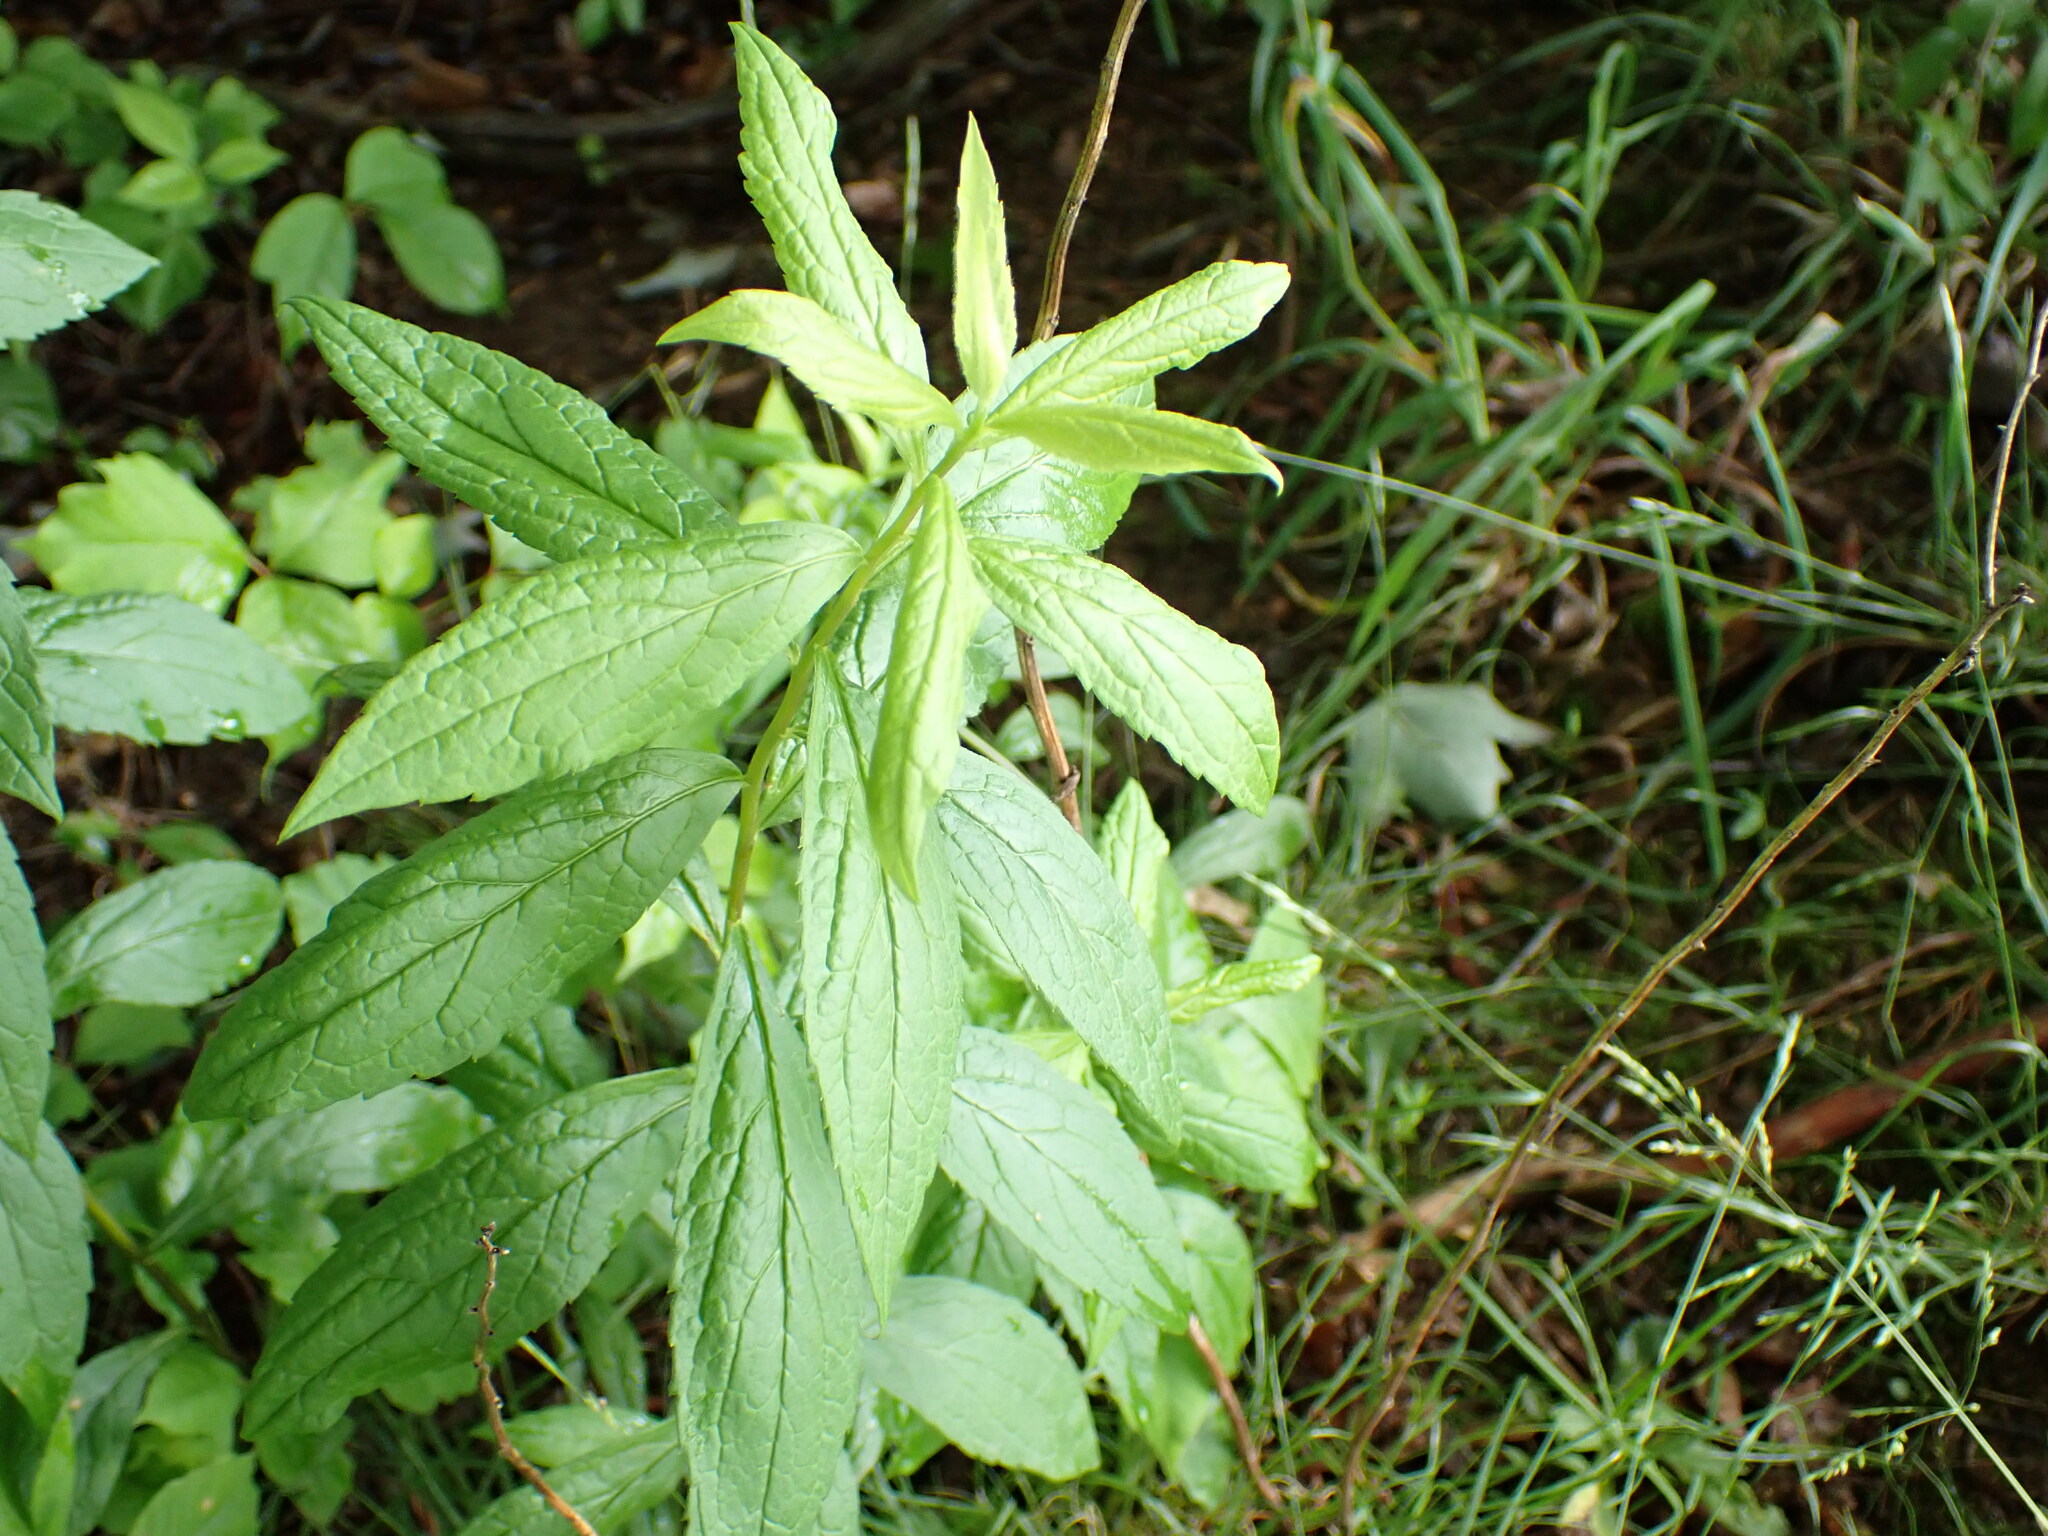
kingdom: Plantae
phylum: Tracheophyta
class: Magnoliopsida
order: Asterales
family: Asteraceae
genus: Solidago
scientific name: Solidago rugosa
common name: Rough-stemmed goldenrod
